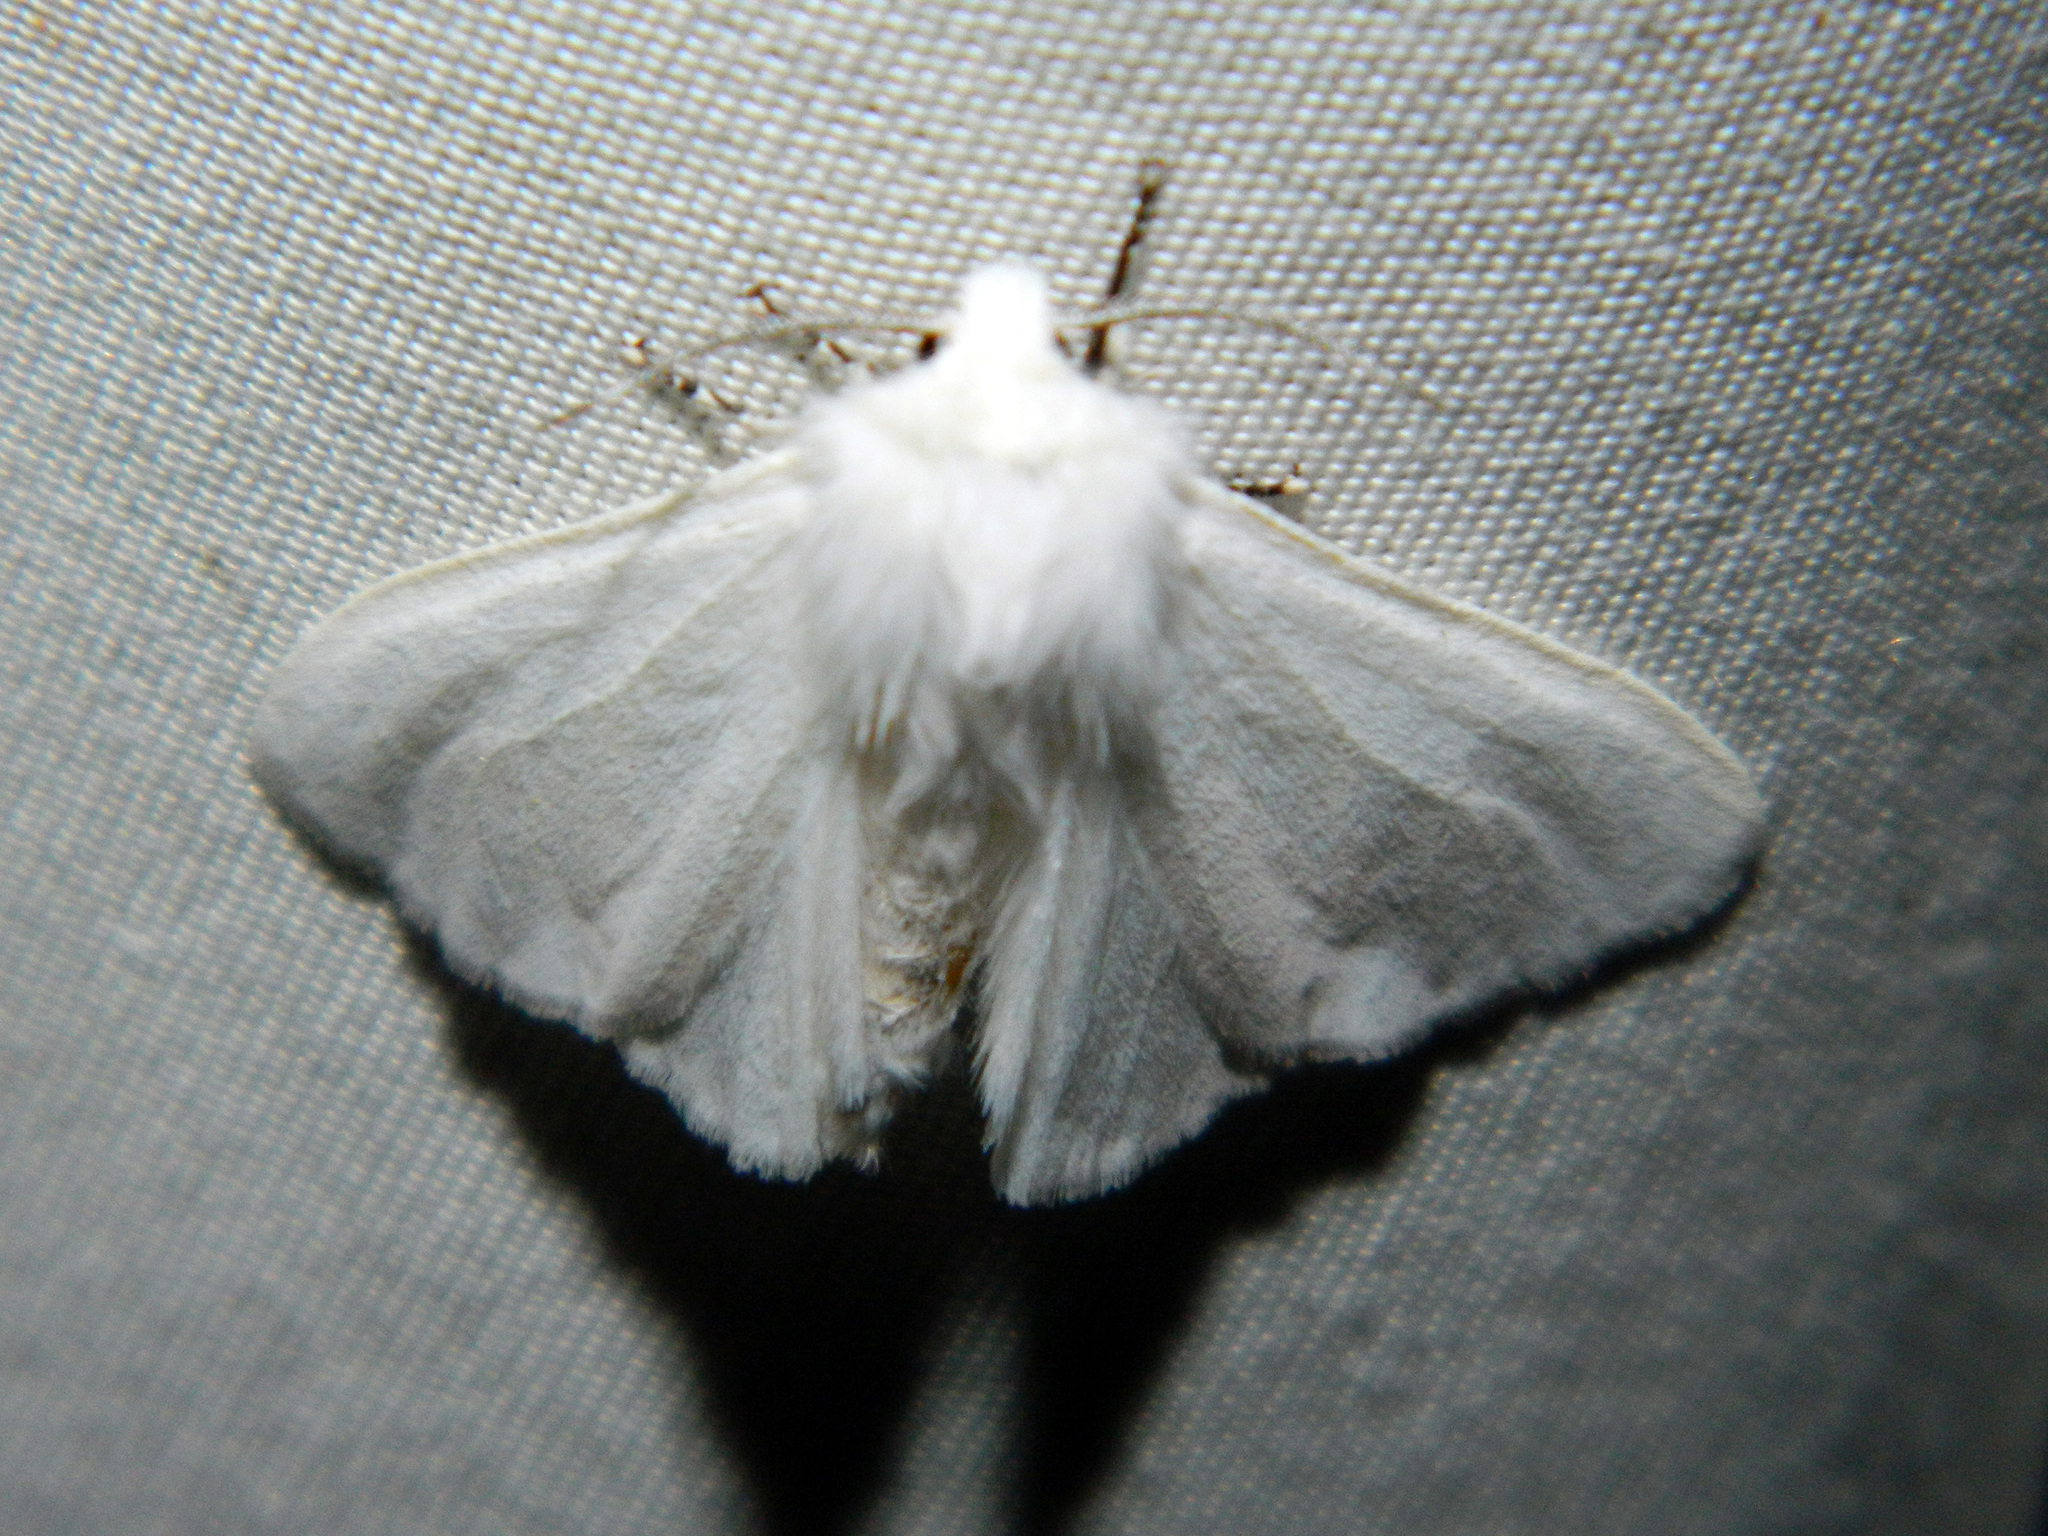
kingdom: Animalia
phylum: Arthropoda
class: Insecta
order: Lepidoptera
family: Erebidae
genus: Hyphantria
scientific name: Hyphantria cunea
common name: American white moth
